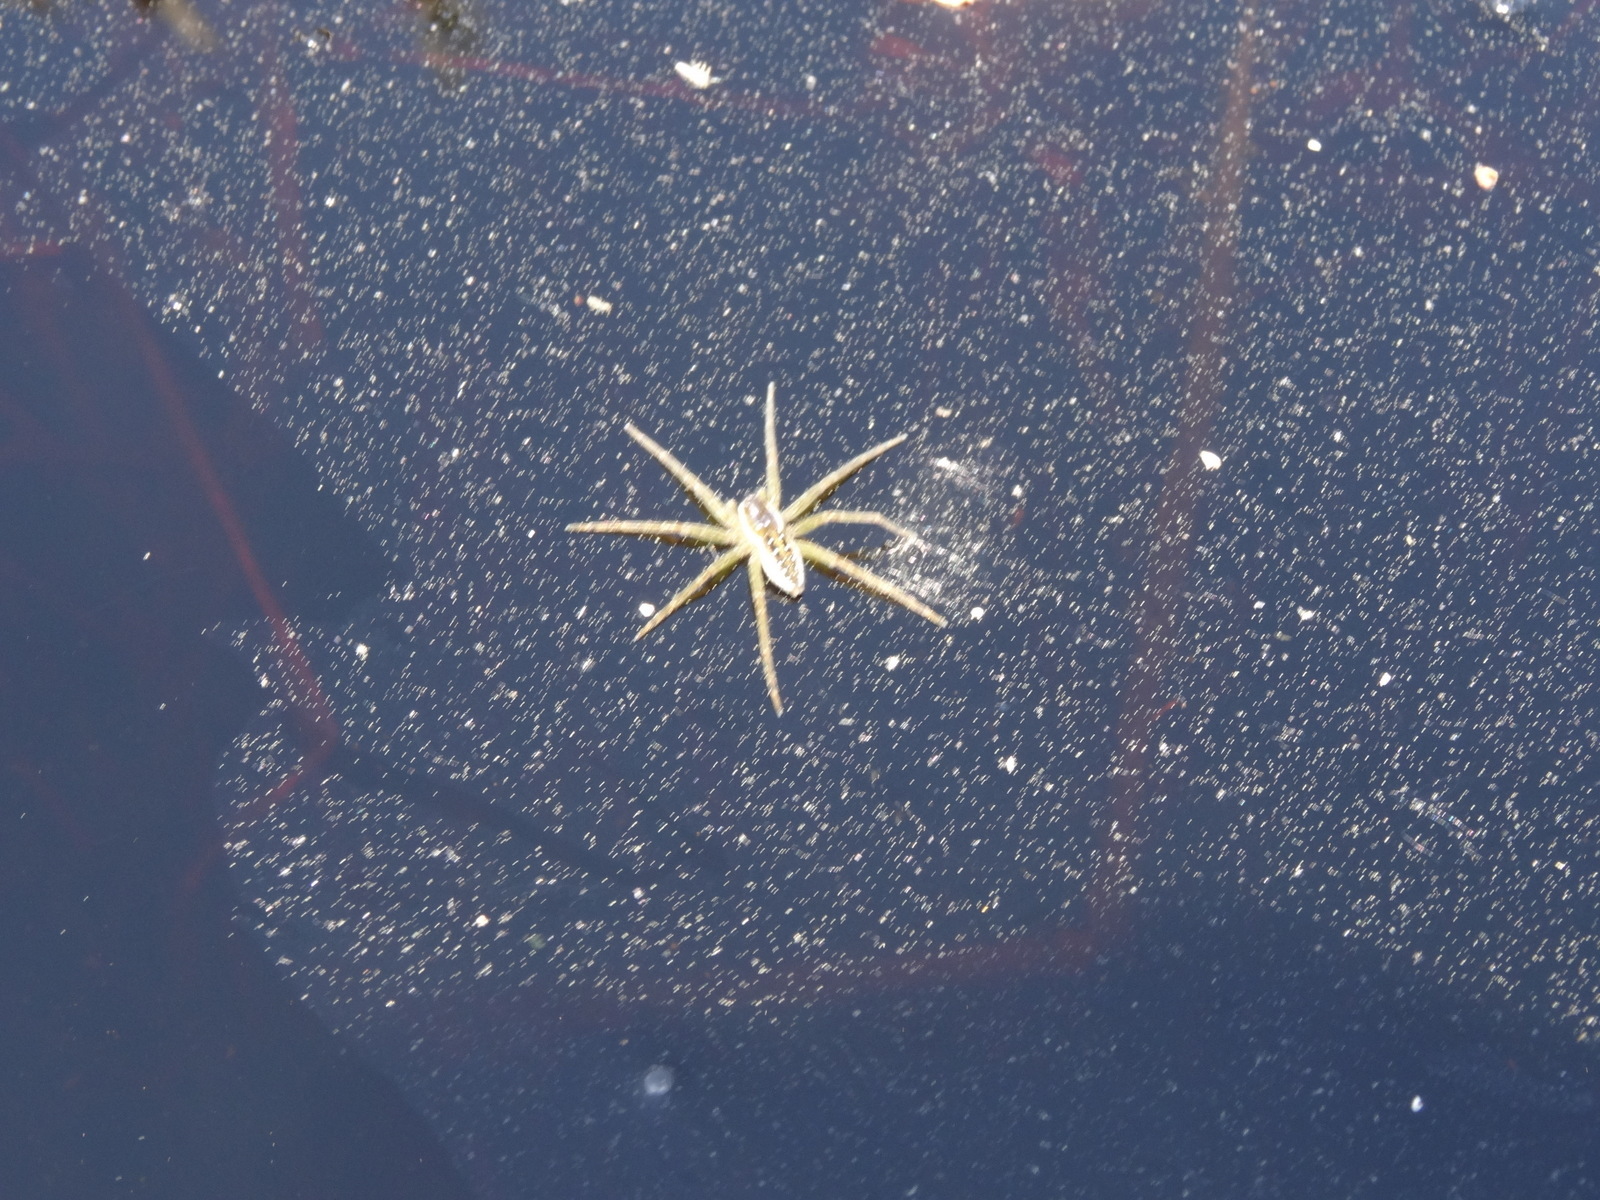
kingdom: Animalia
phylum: Arthropoda
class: Arachnida
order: Araneae
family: Pisauridae
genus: Dolomedes
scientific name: Dolomedes triton
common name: Six-spotted fishing spider
